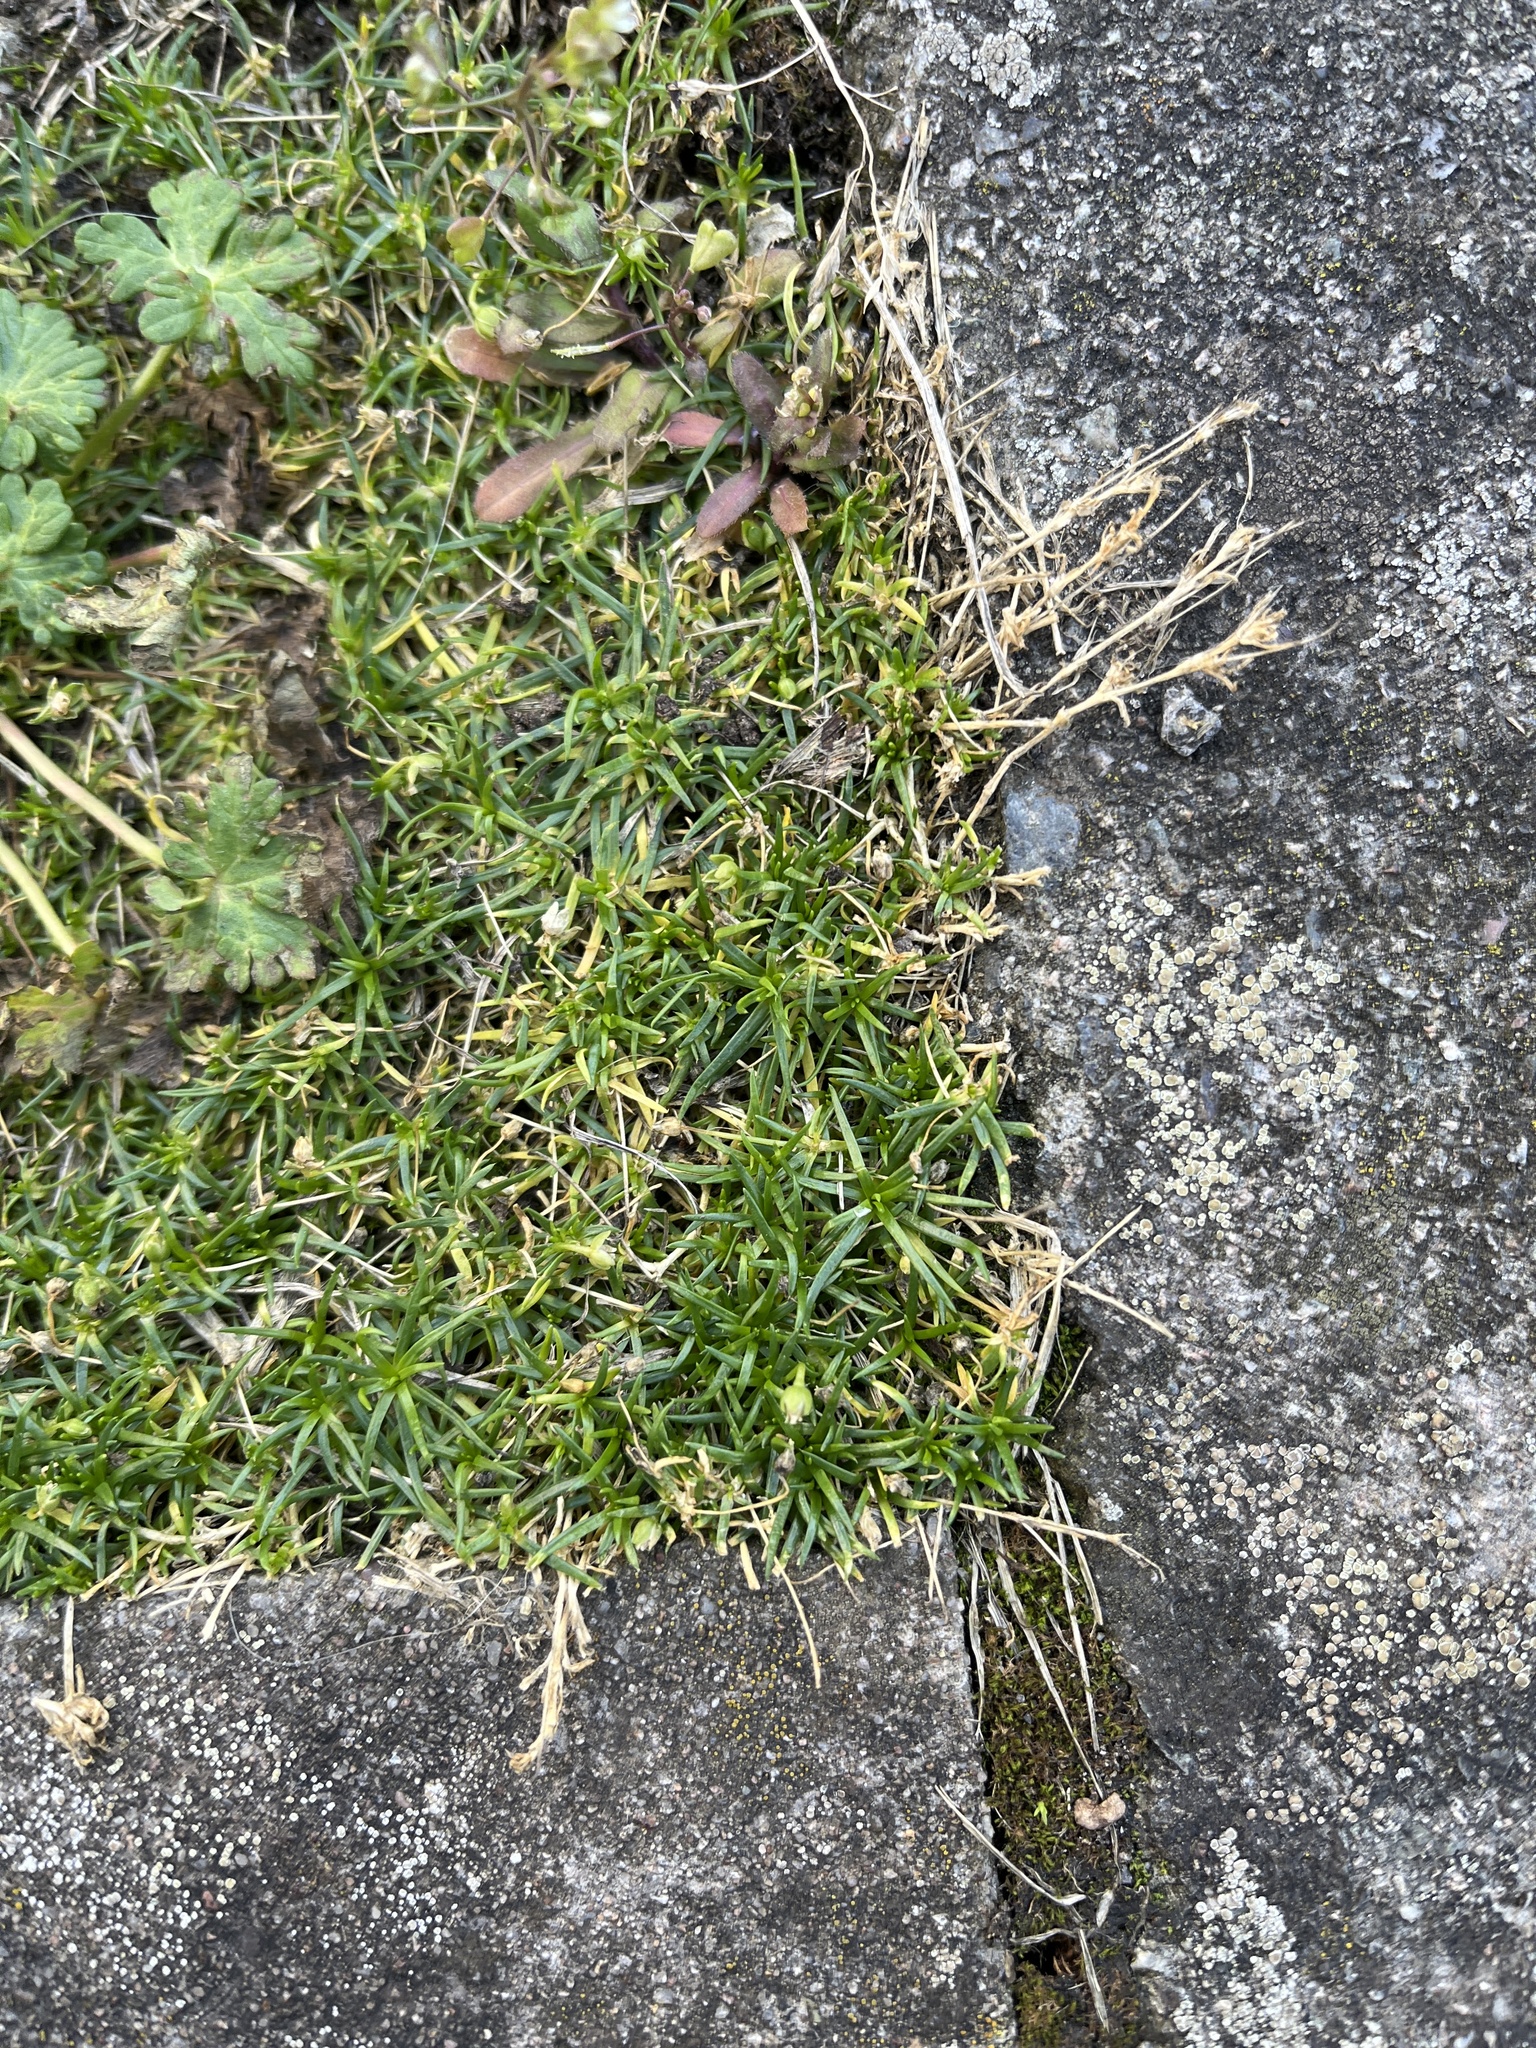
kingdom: Plantae
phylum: Tracheophyta
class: Magnoliopsida
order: Caryophyllales
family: Caryophyllaceae
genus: Sagina
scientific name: Sagina procumbens
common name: Procumbent pearlwort
